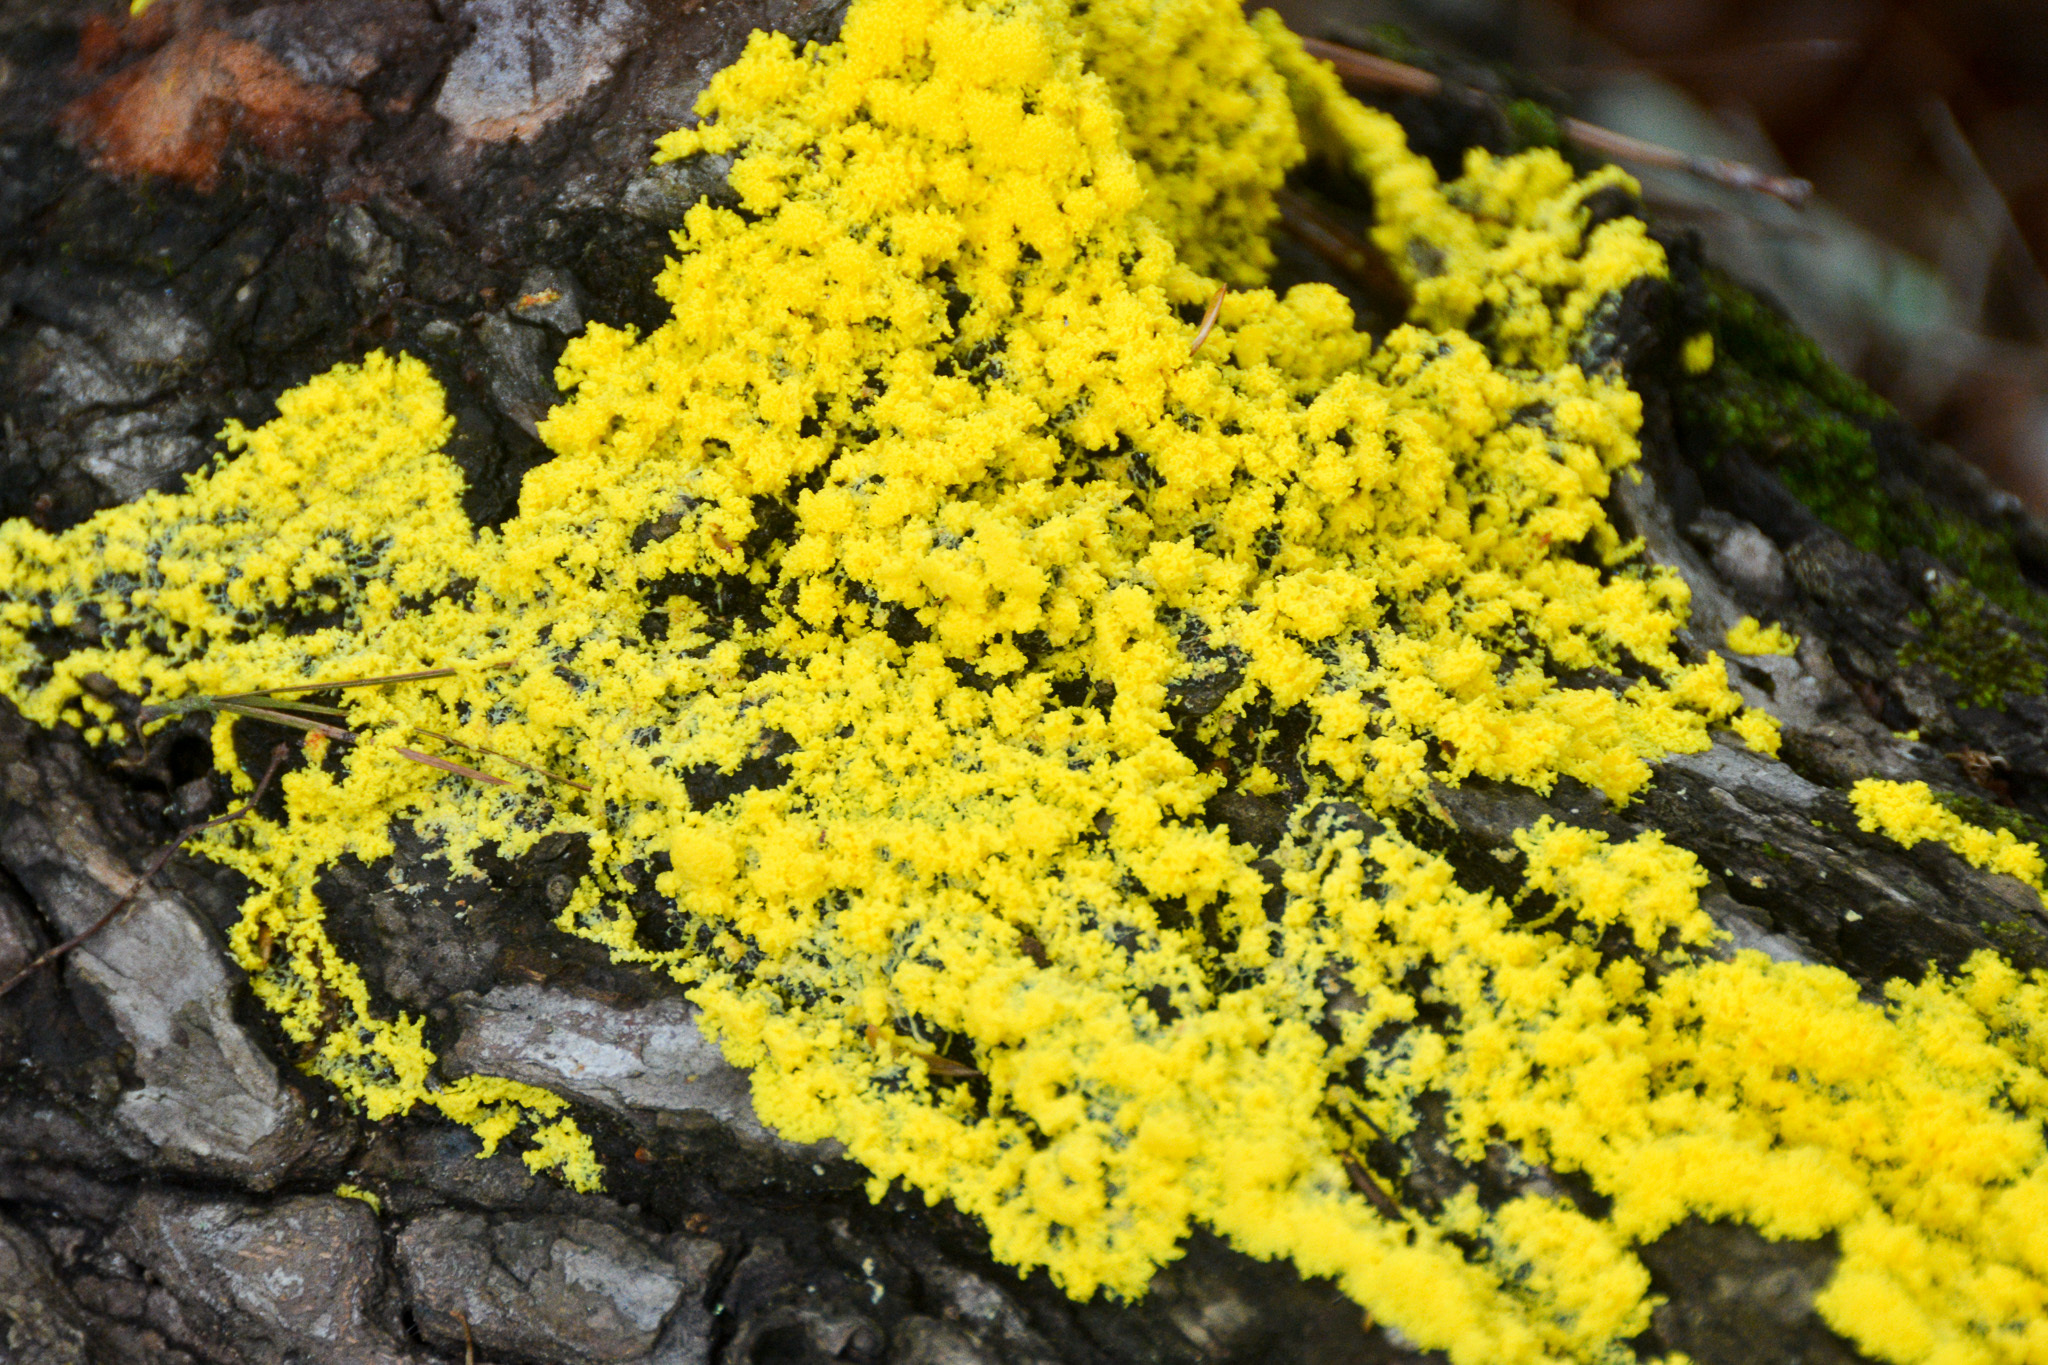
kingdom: Protozoa
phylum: Mycetozoa
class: Myxomycetes
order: Physarales
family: Physaraceae
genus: Fuligo
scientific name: Fuligo septica
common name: Dog vomit slime mold
